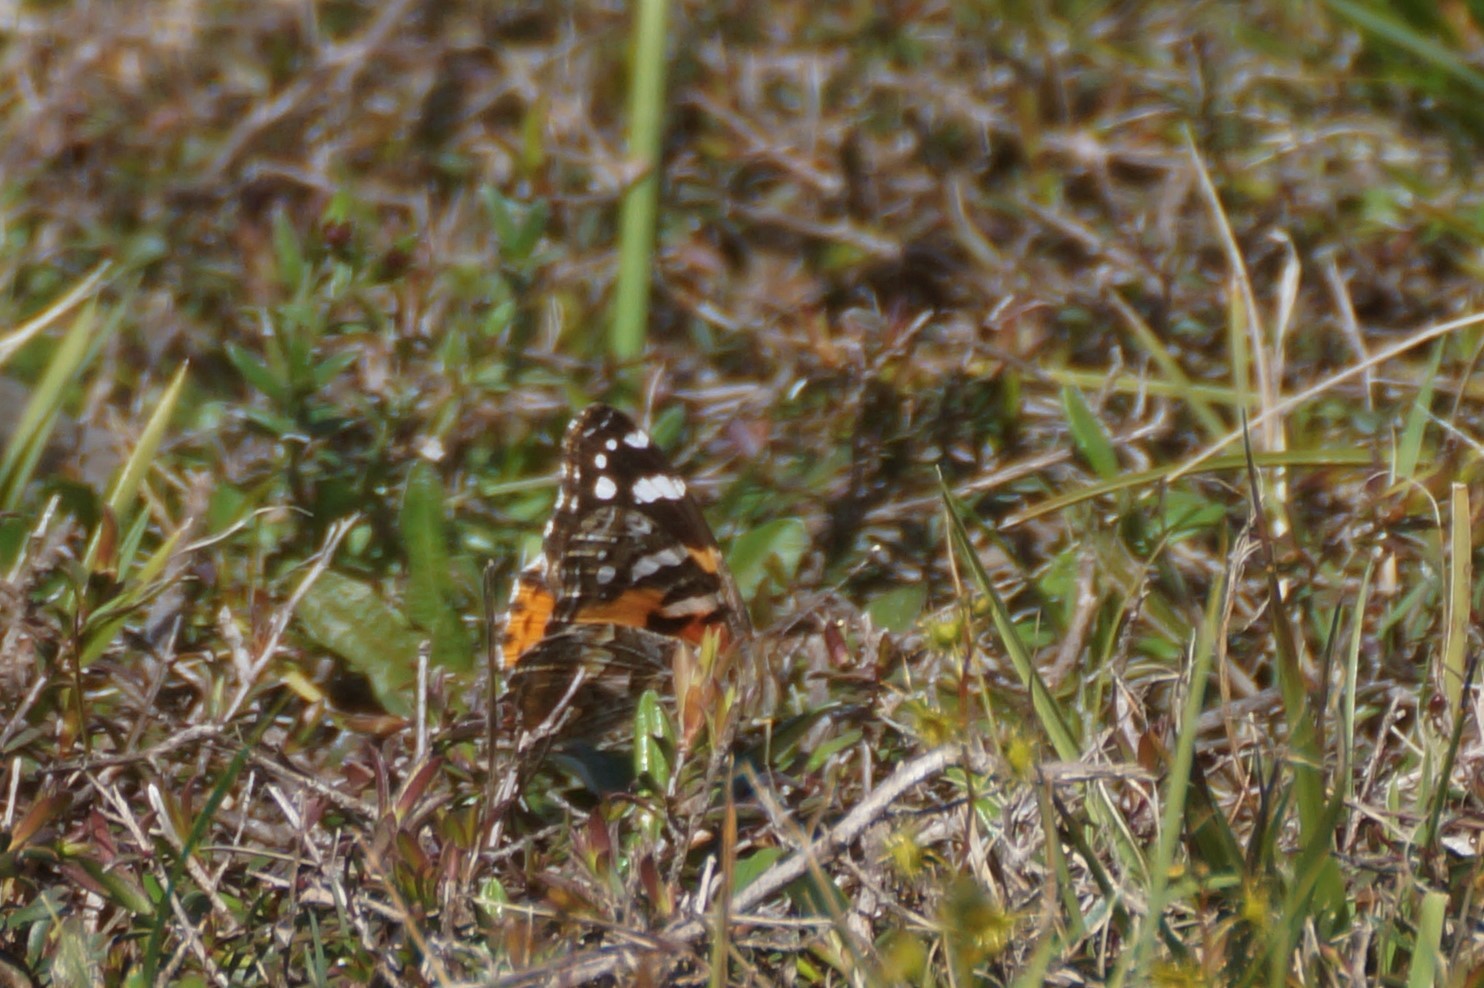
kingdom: Animalia
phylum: Arthropoda
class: Insecta
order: Lepidoptera
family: Nymphalidae
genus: Vanessa
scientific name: Vanessa kershawi
